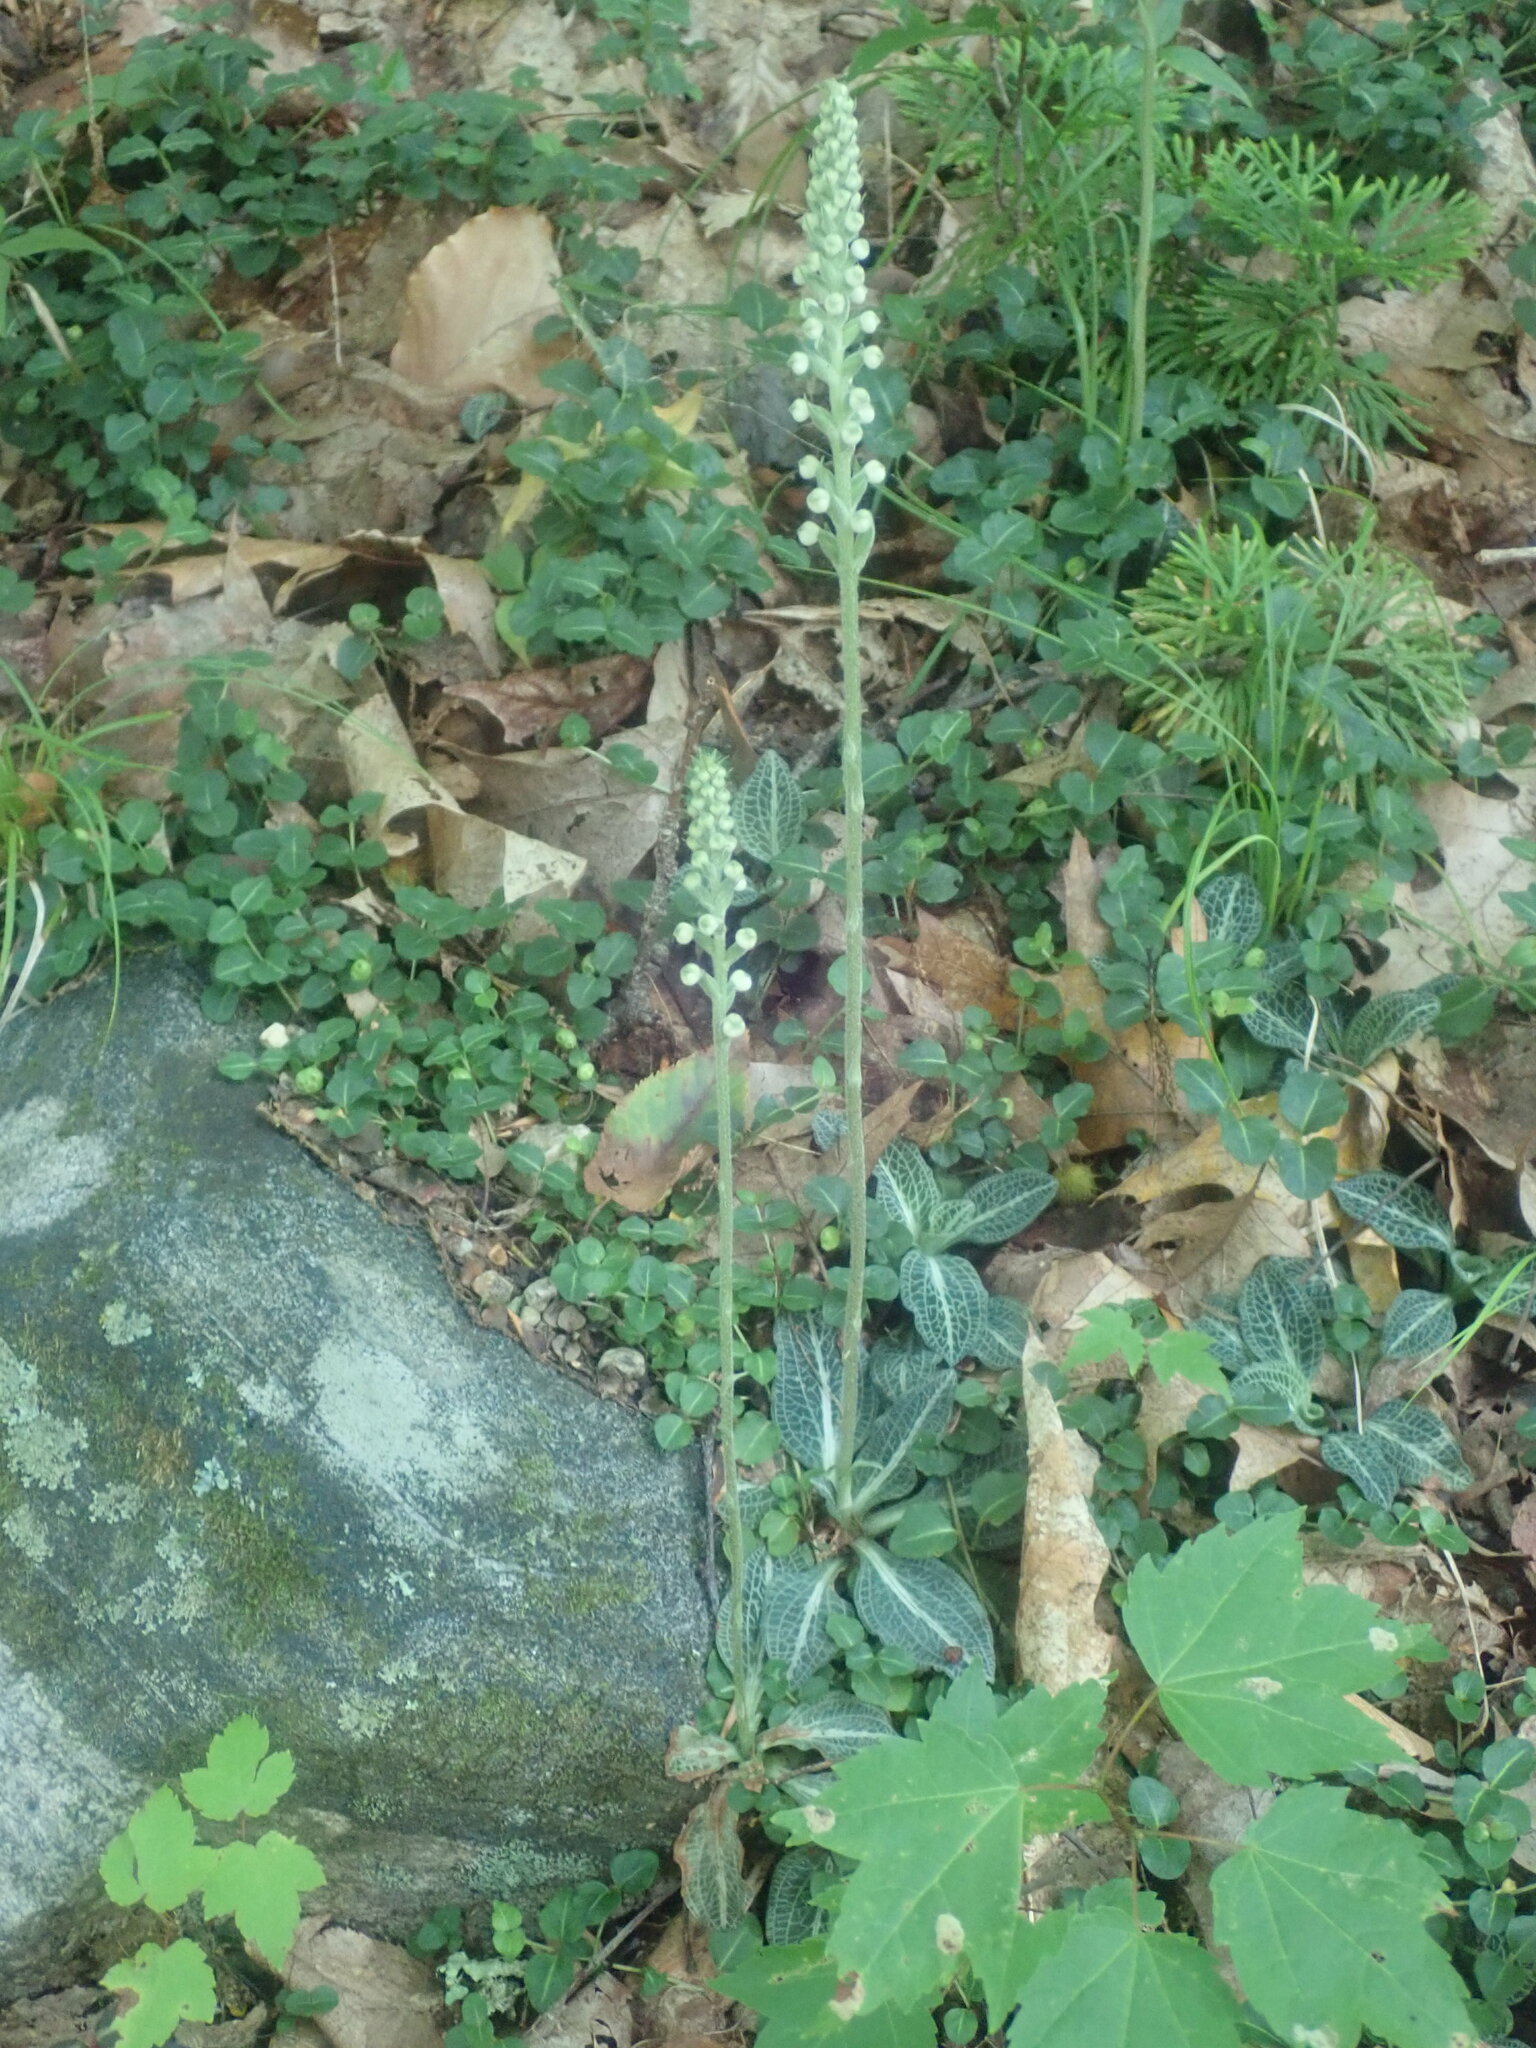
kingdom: Plantae
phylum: Tracheophyta
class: Liliopsida
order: Asparagales
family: Orchidaceae
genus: Goodyera
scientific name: Goodyera pubescens
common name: Downy rattlesnake-plantain
